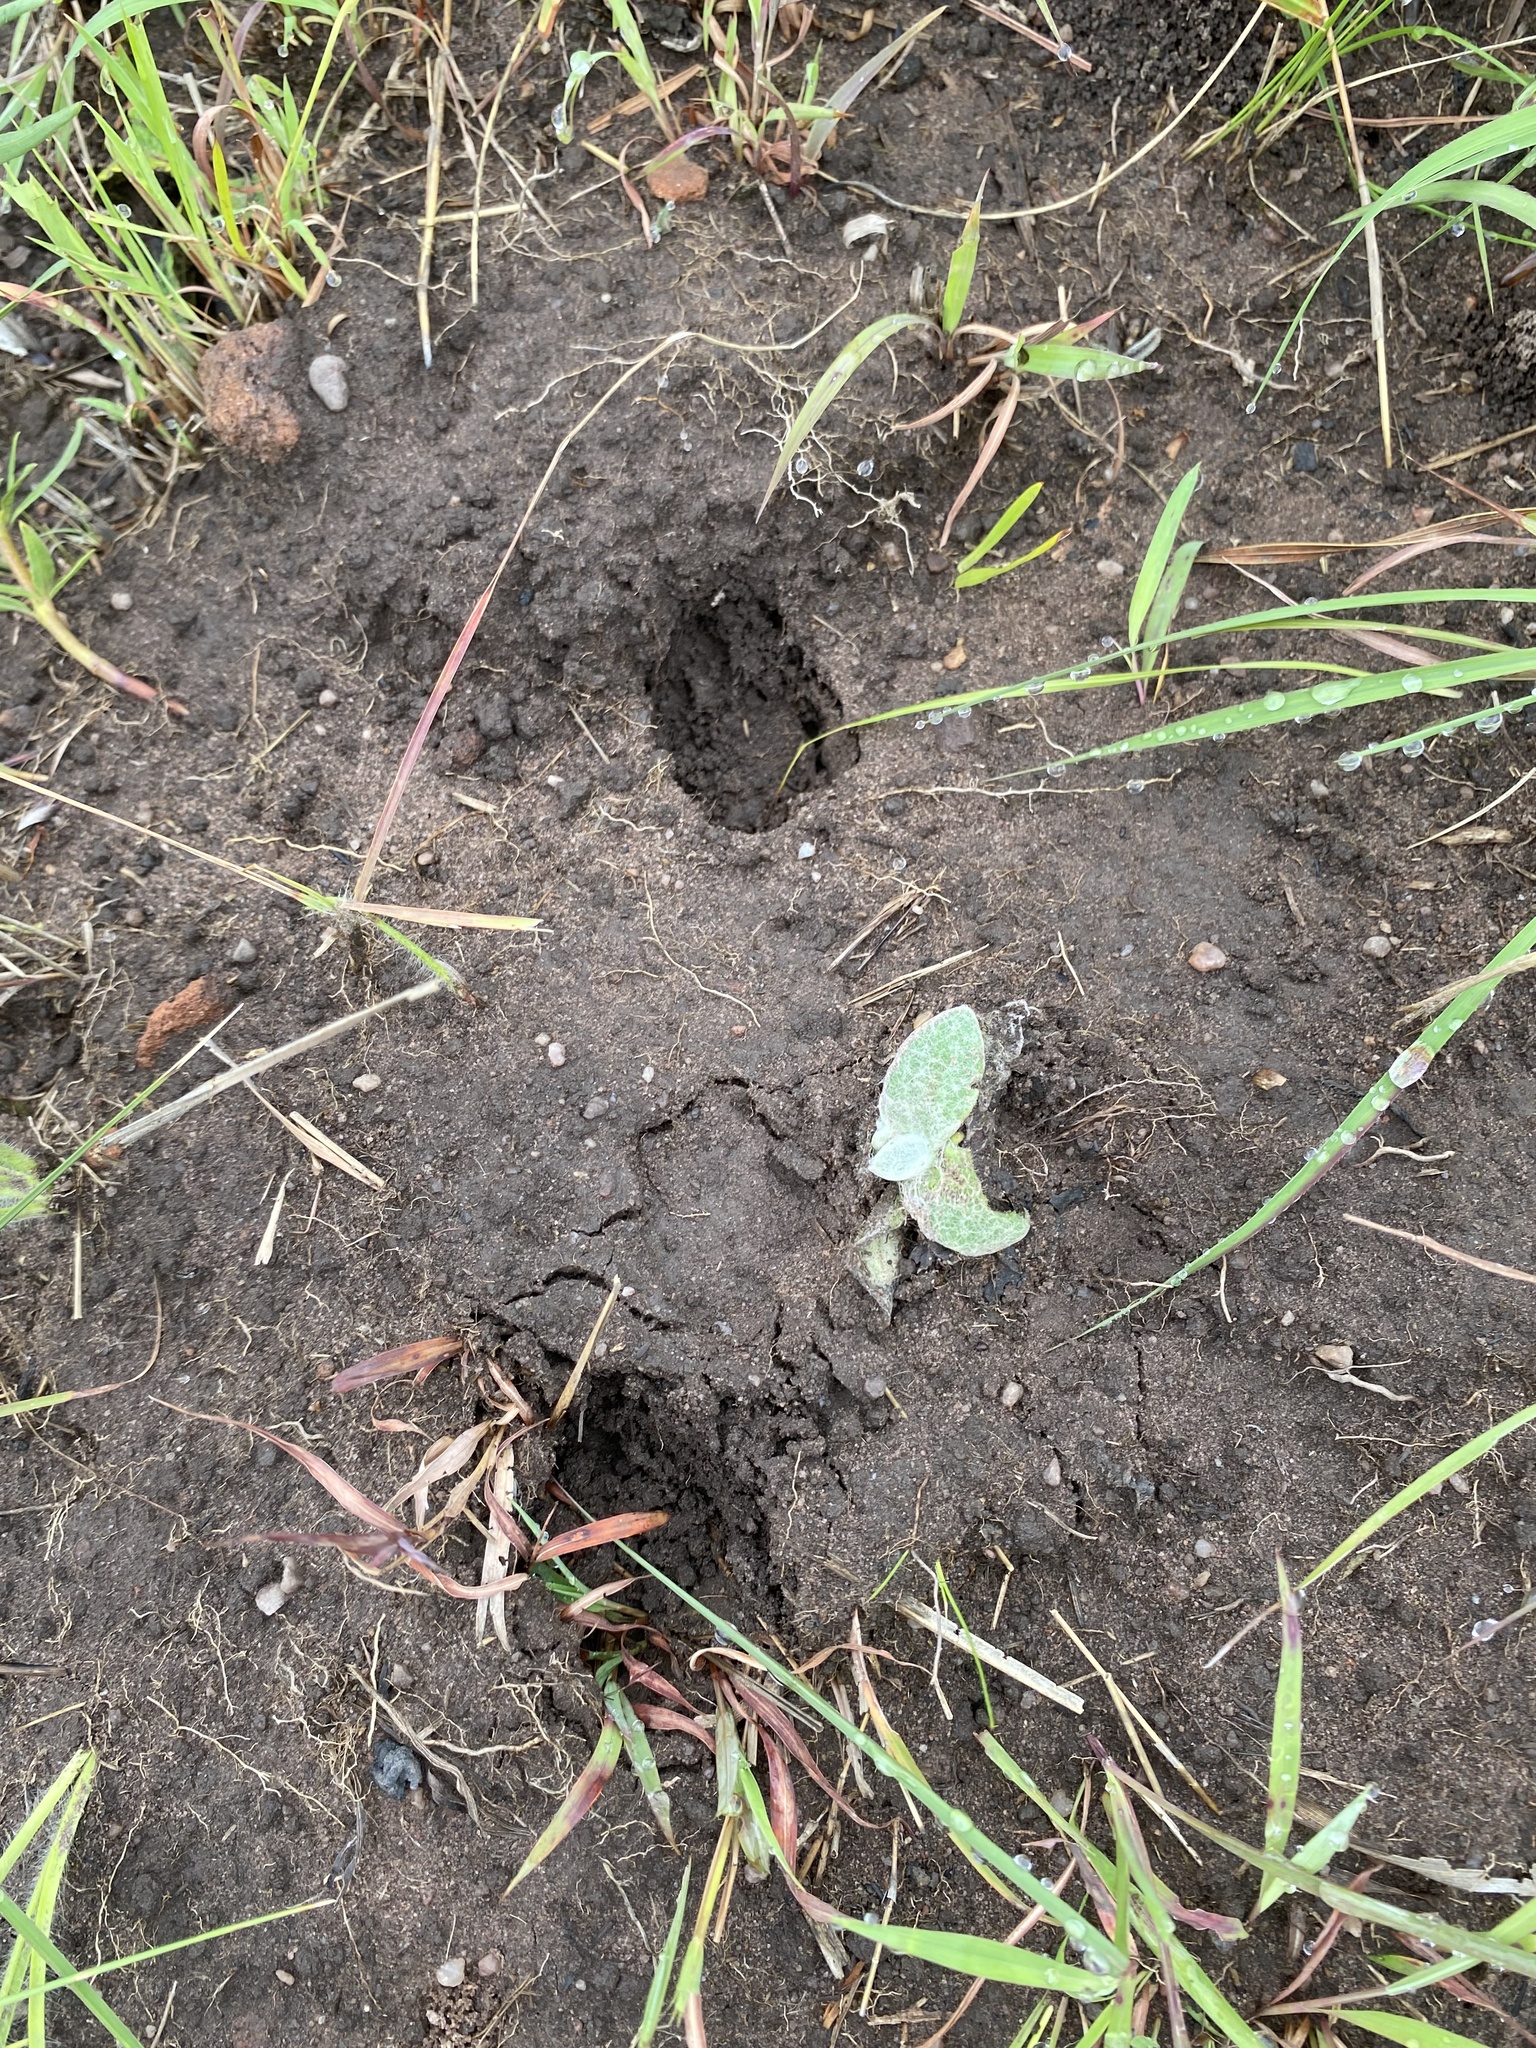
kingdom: Animalia
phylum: Chordata
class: Mammalia
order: Artiodactyla
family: Bovidae
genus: Sylvicapra
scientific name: Sylvicapra grimmia
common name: Bush duiker
